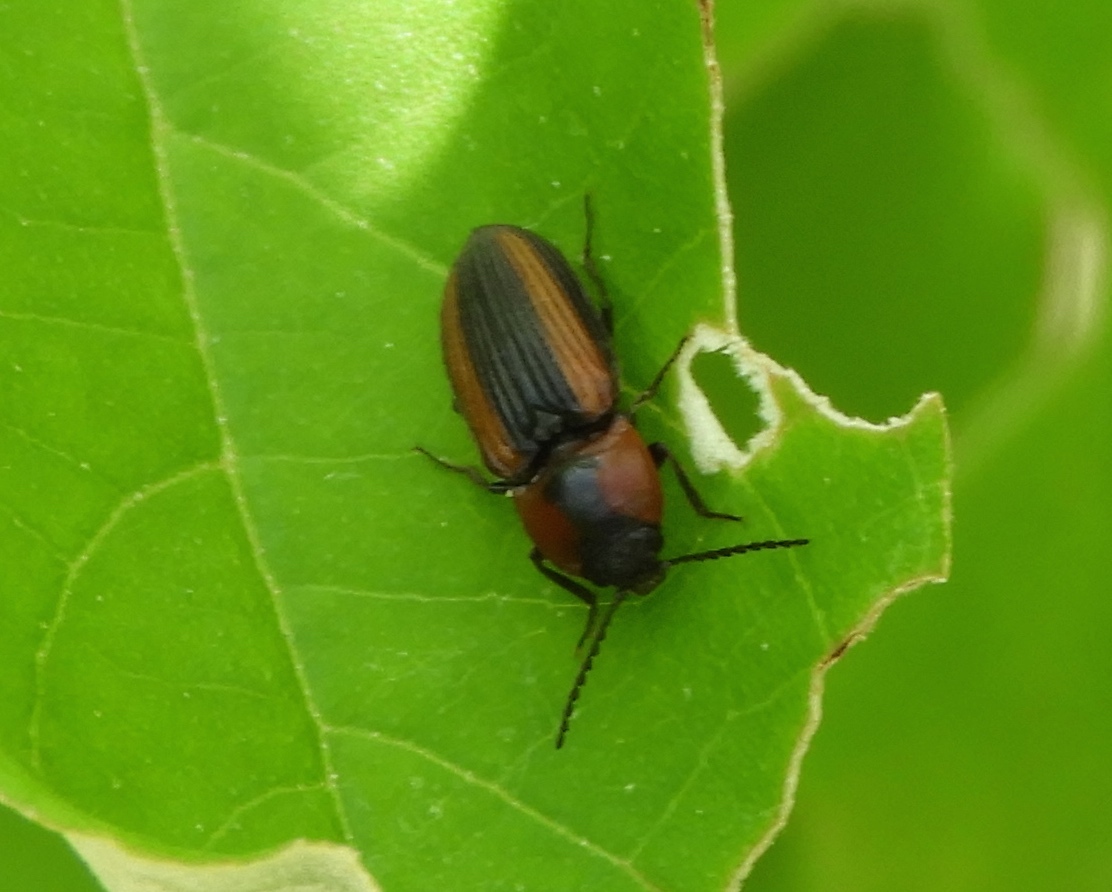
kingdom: Animalia
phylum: Arthropoda
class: Insecta
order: Coleoptera
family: Elateridae
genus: Cardiophorus
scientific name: Cardiophorus aptopoides
